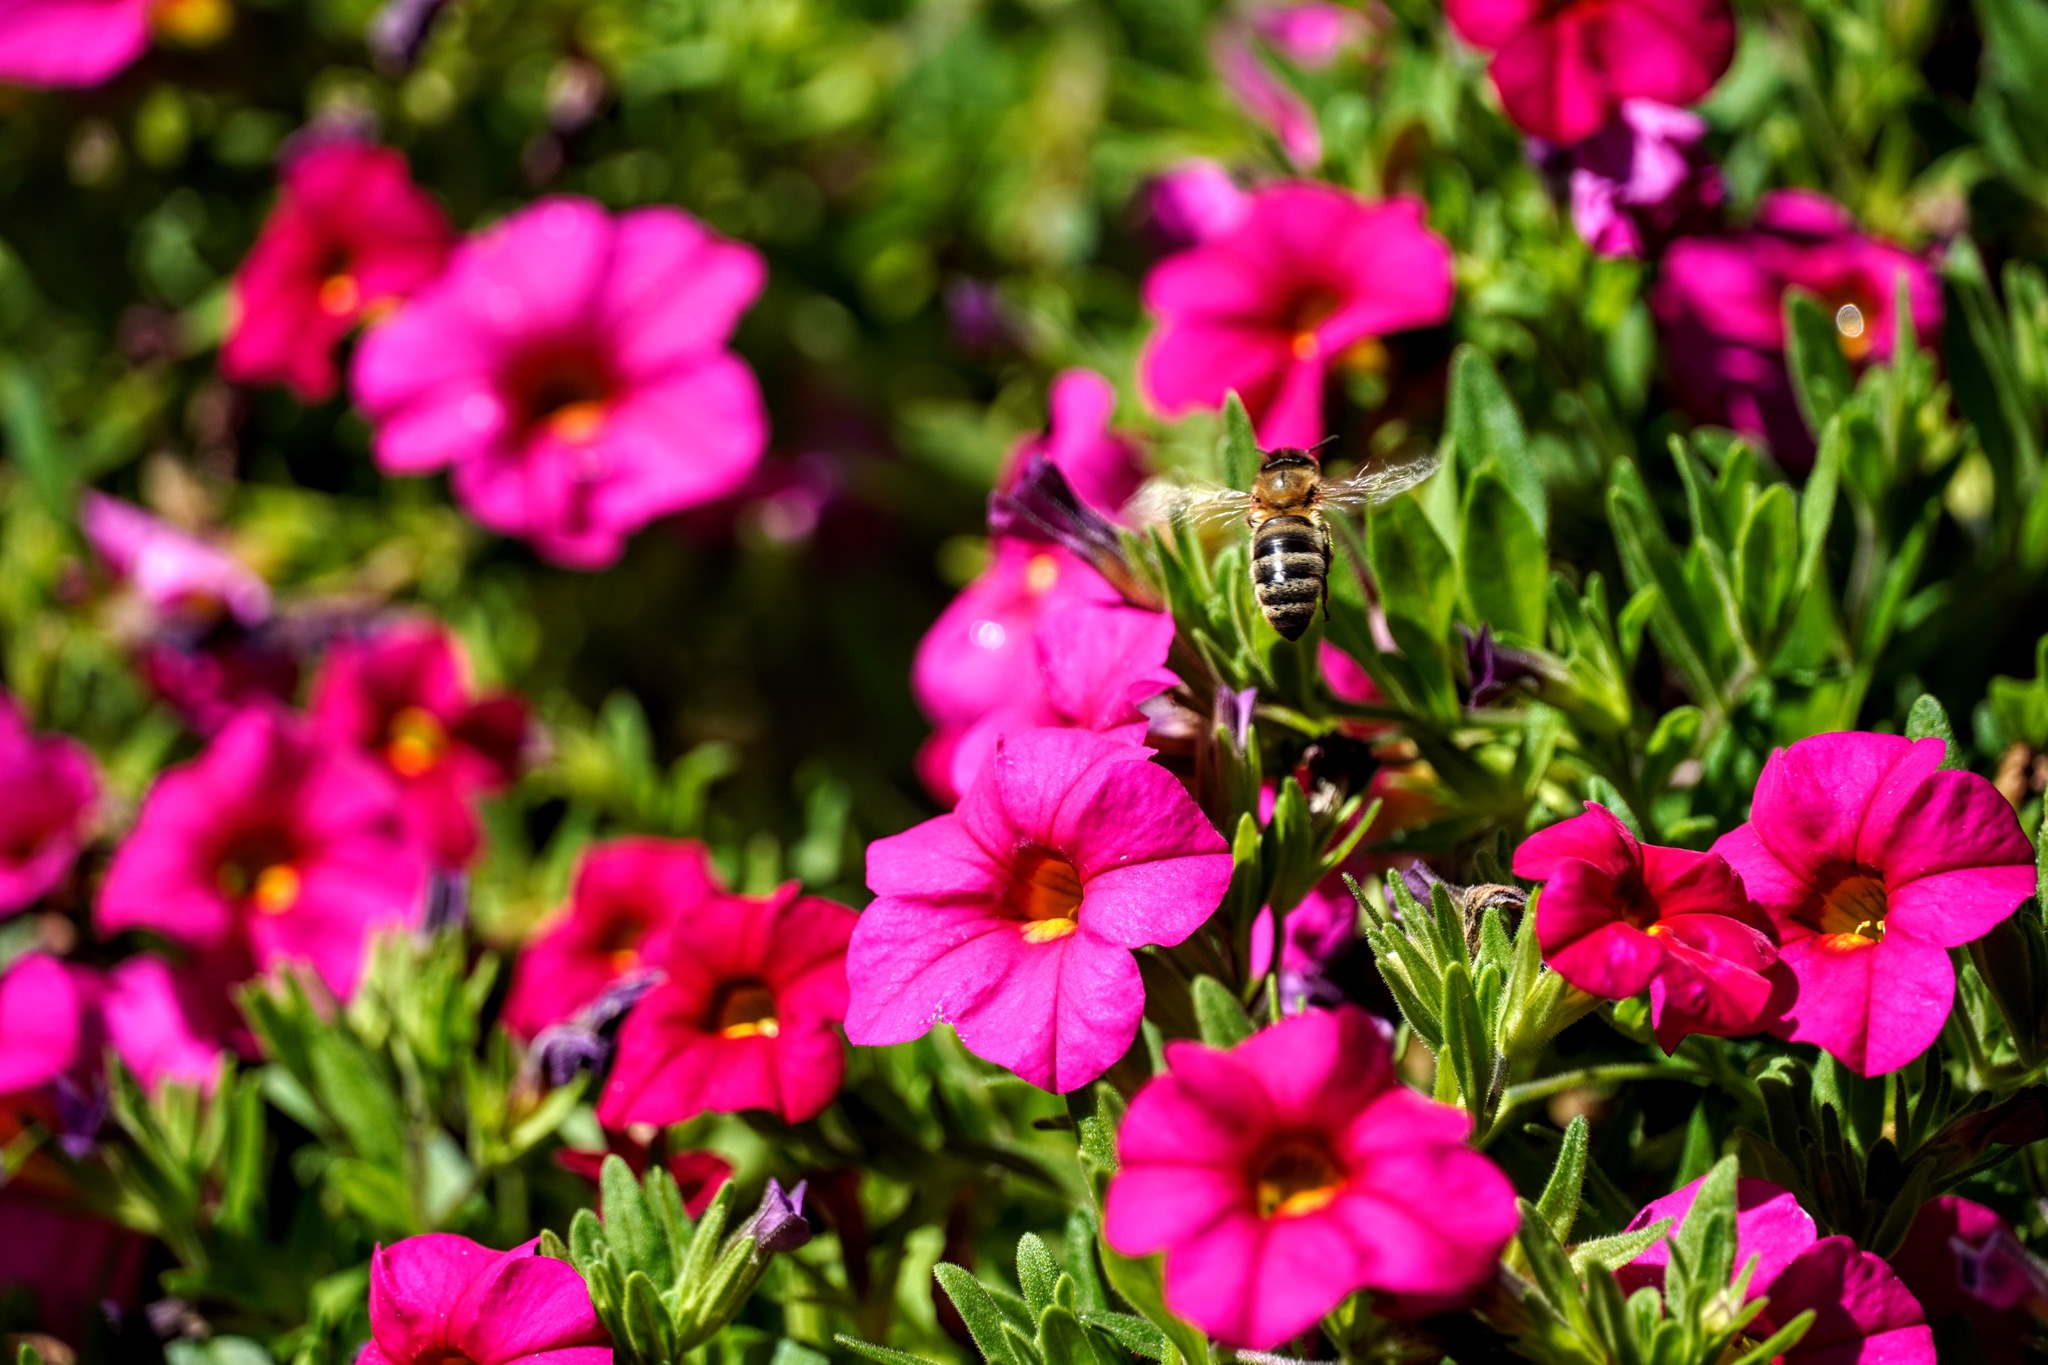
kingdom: Animalia
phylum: Arthropoda
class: Insecta
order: Hymenoptera
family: Apidae
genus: Apis
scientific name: Apis mellifera
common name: Honey bee
